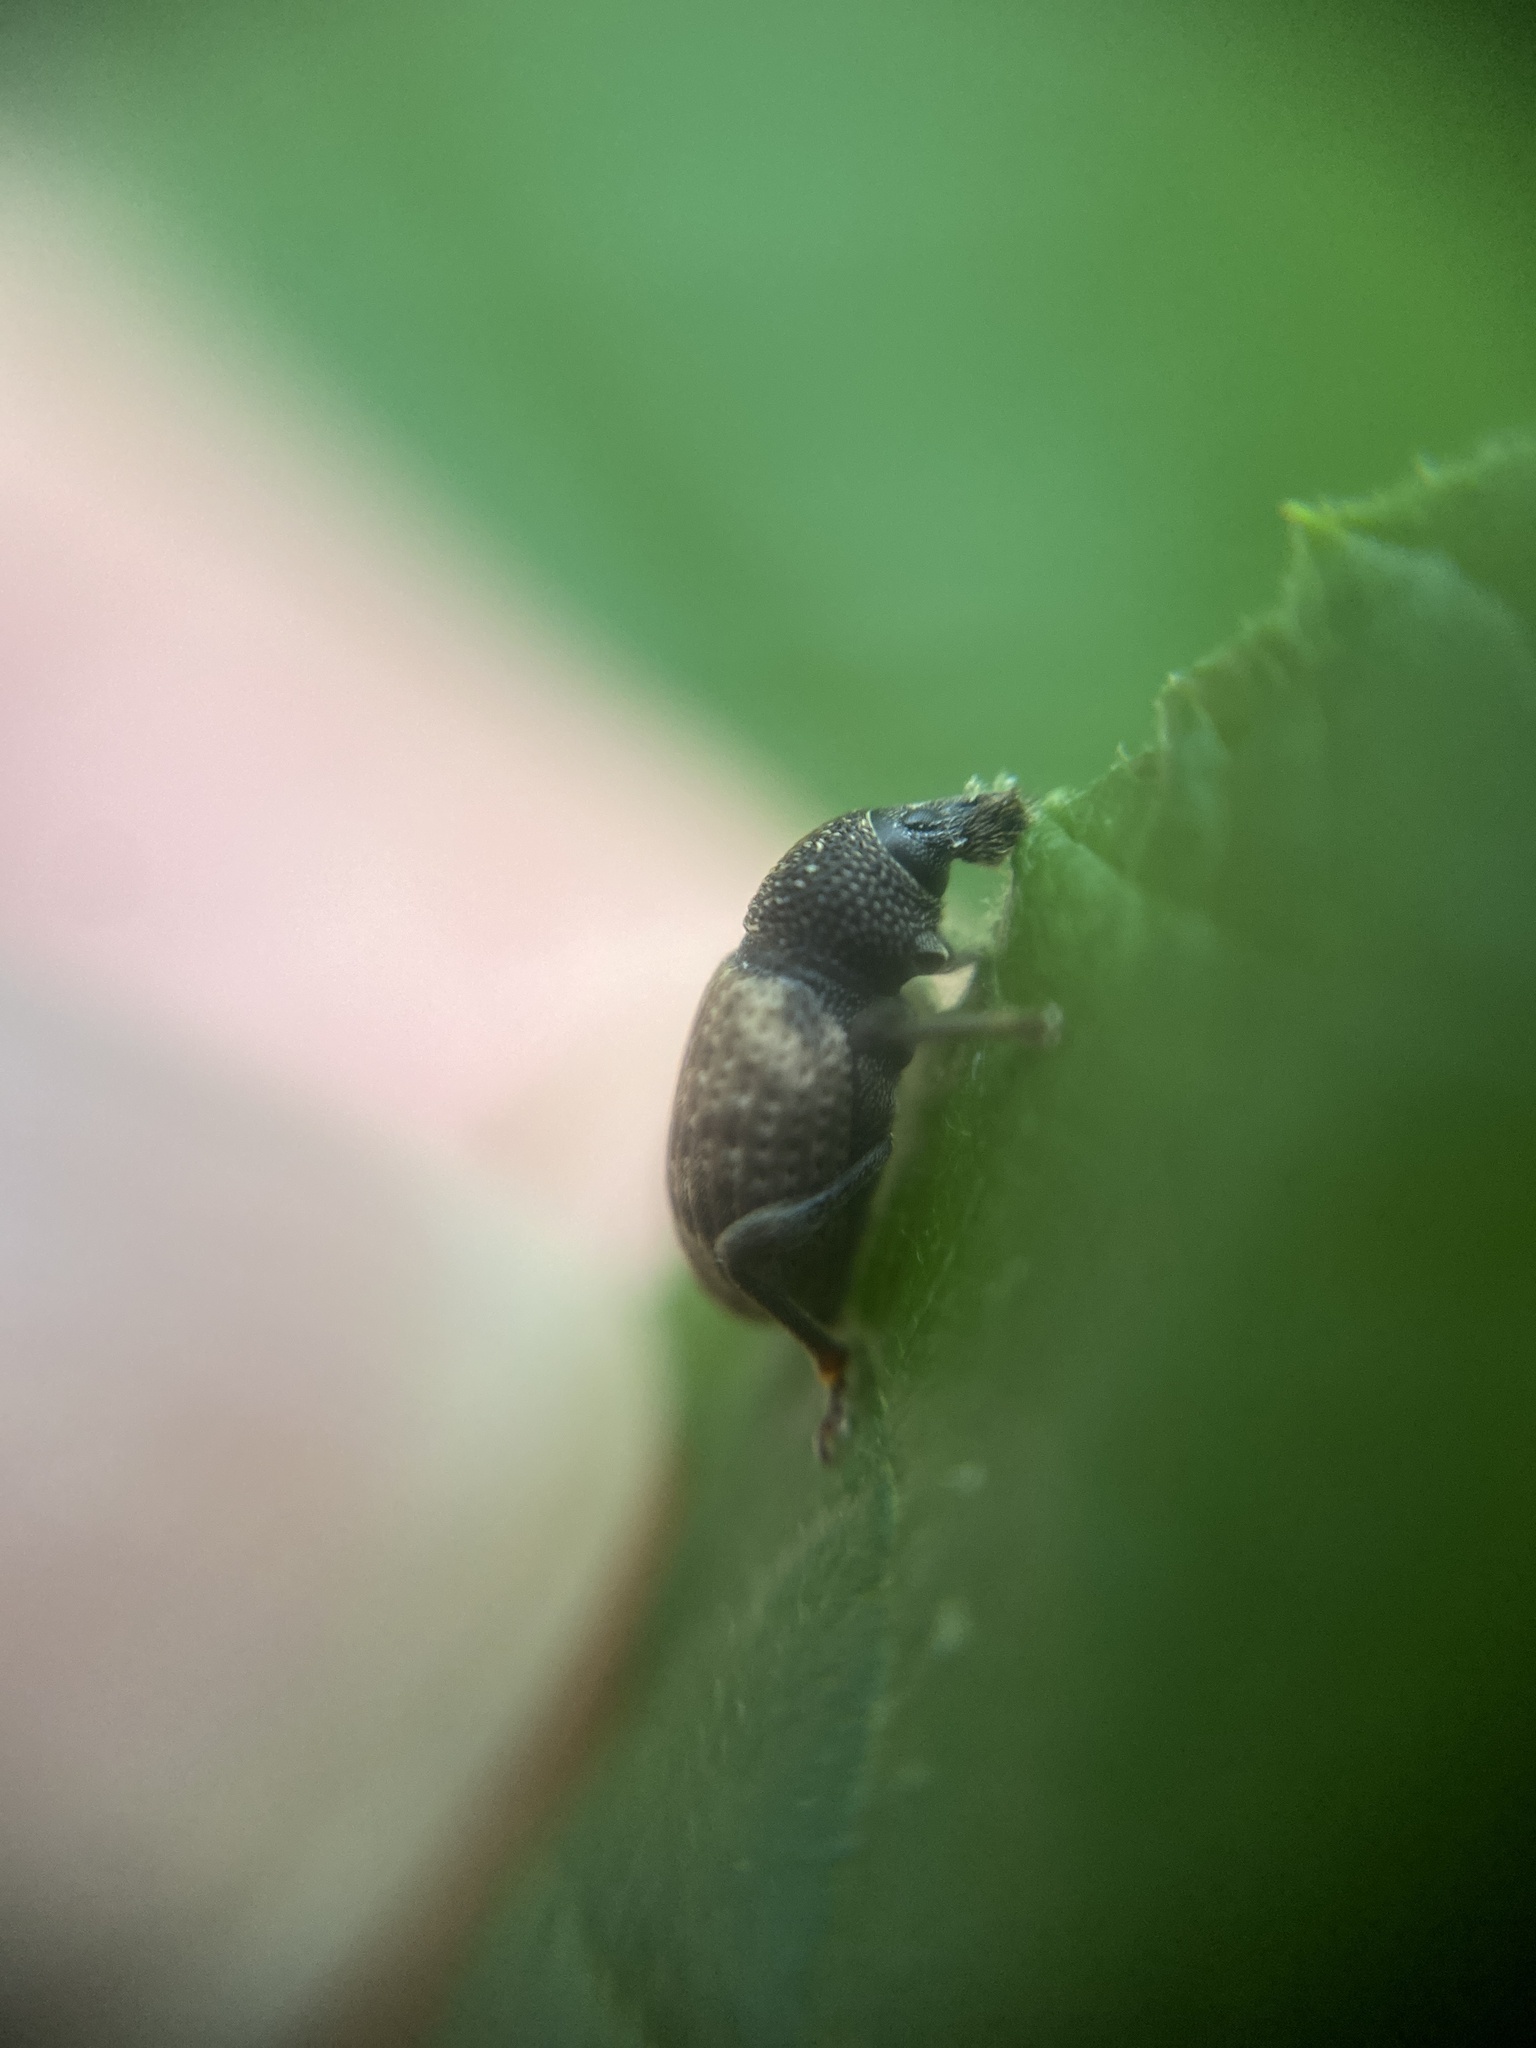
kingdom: Animalia
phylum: Arthropoda
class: Insecta
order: Coleoptera
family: Curculionidae
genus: Otiorhynchus
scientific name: Otiorhynchus raucus
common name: Weevil
